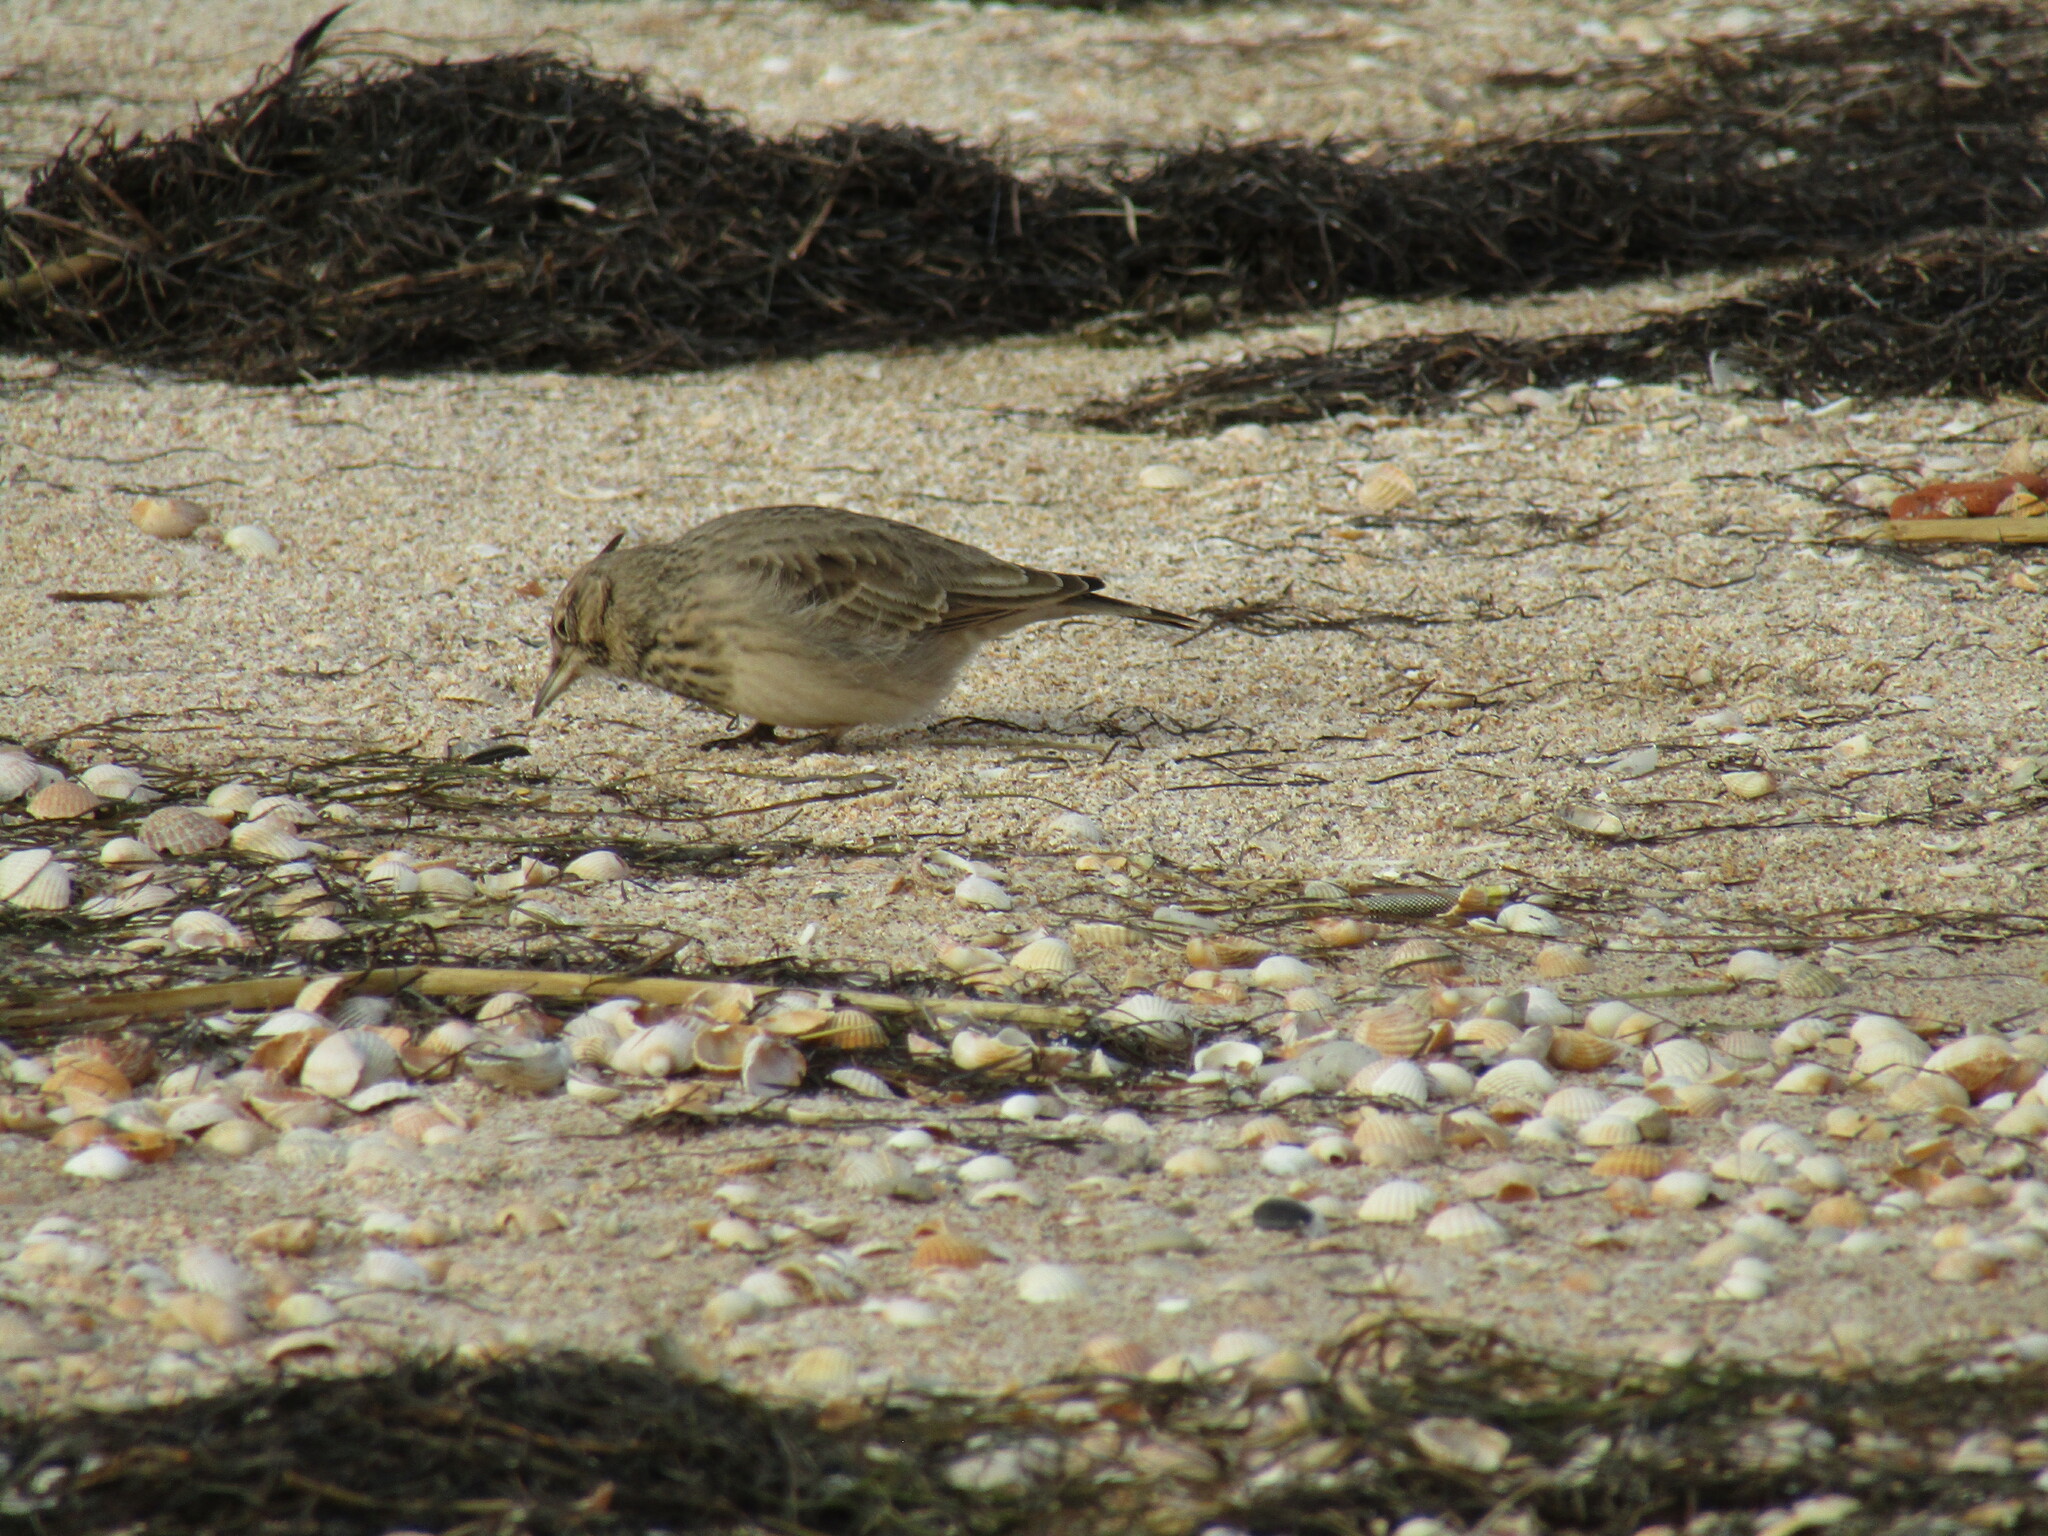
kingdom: Animalia
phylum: Chordata
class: Aves
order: Passeriformes
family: Alaudidae
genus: Galerida
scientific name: Galerida cristata
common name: Crested lark
